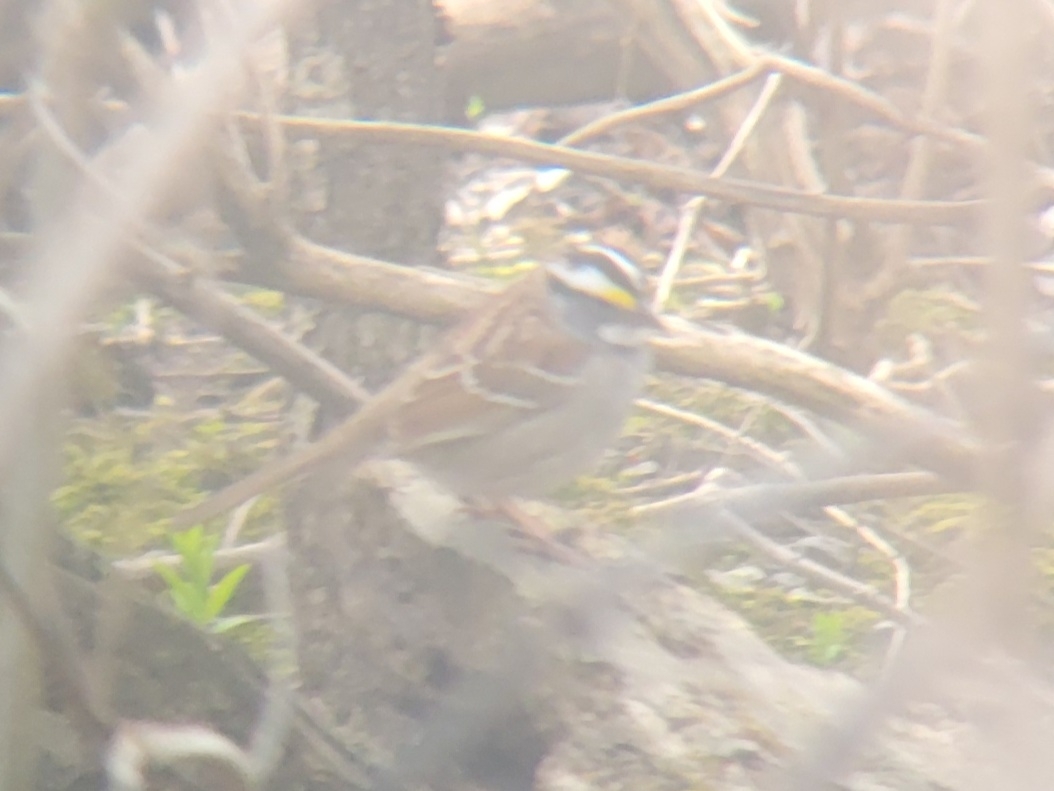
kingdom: Animalia
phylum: Chordata
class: Aves
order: Passeriformes
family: Passerellidae
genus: Zonotrichia
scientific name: Zonotrichia albicollis
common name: White-throated sparrow
